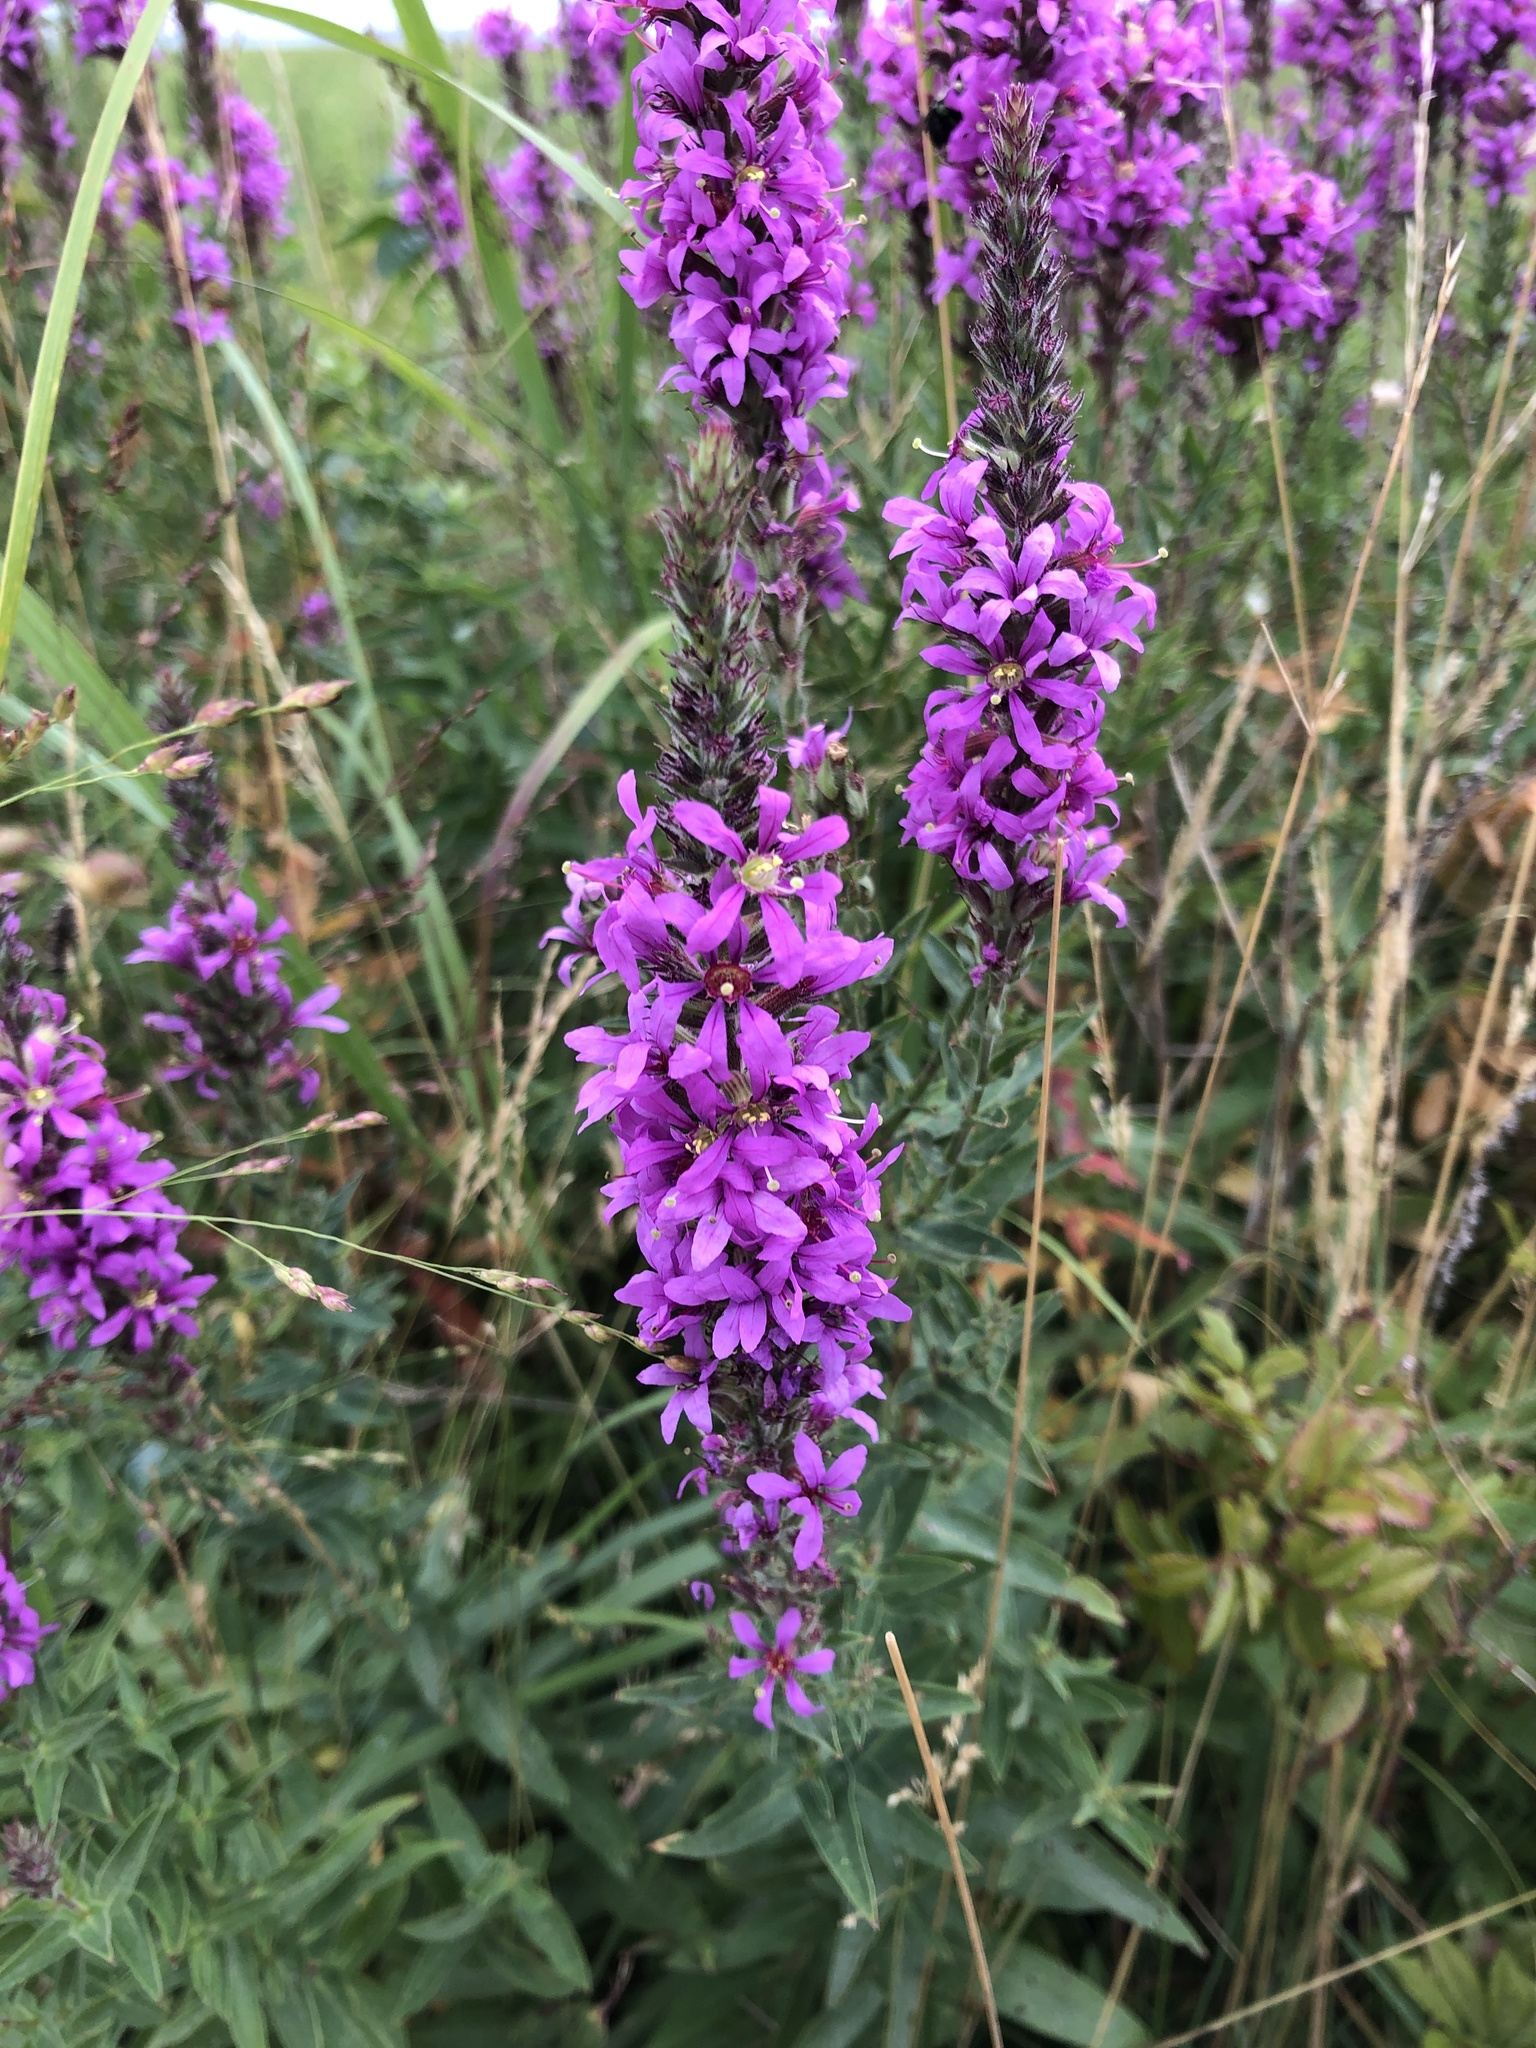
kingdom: Plantae
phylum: Tracheophyta
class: Magnoliopsida
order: Myrtales
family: Lythraceae
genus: Lythrum
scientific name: Lythrum salicaria
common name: Purple loosestrife
